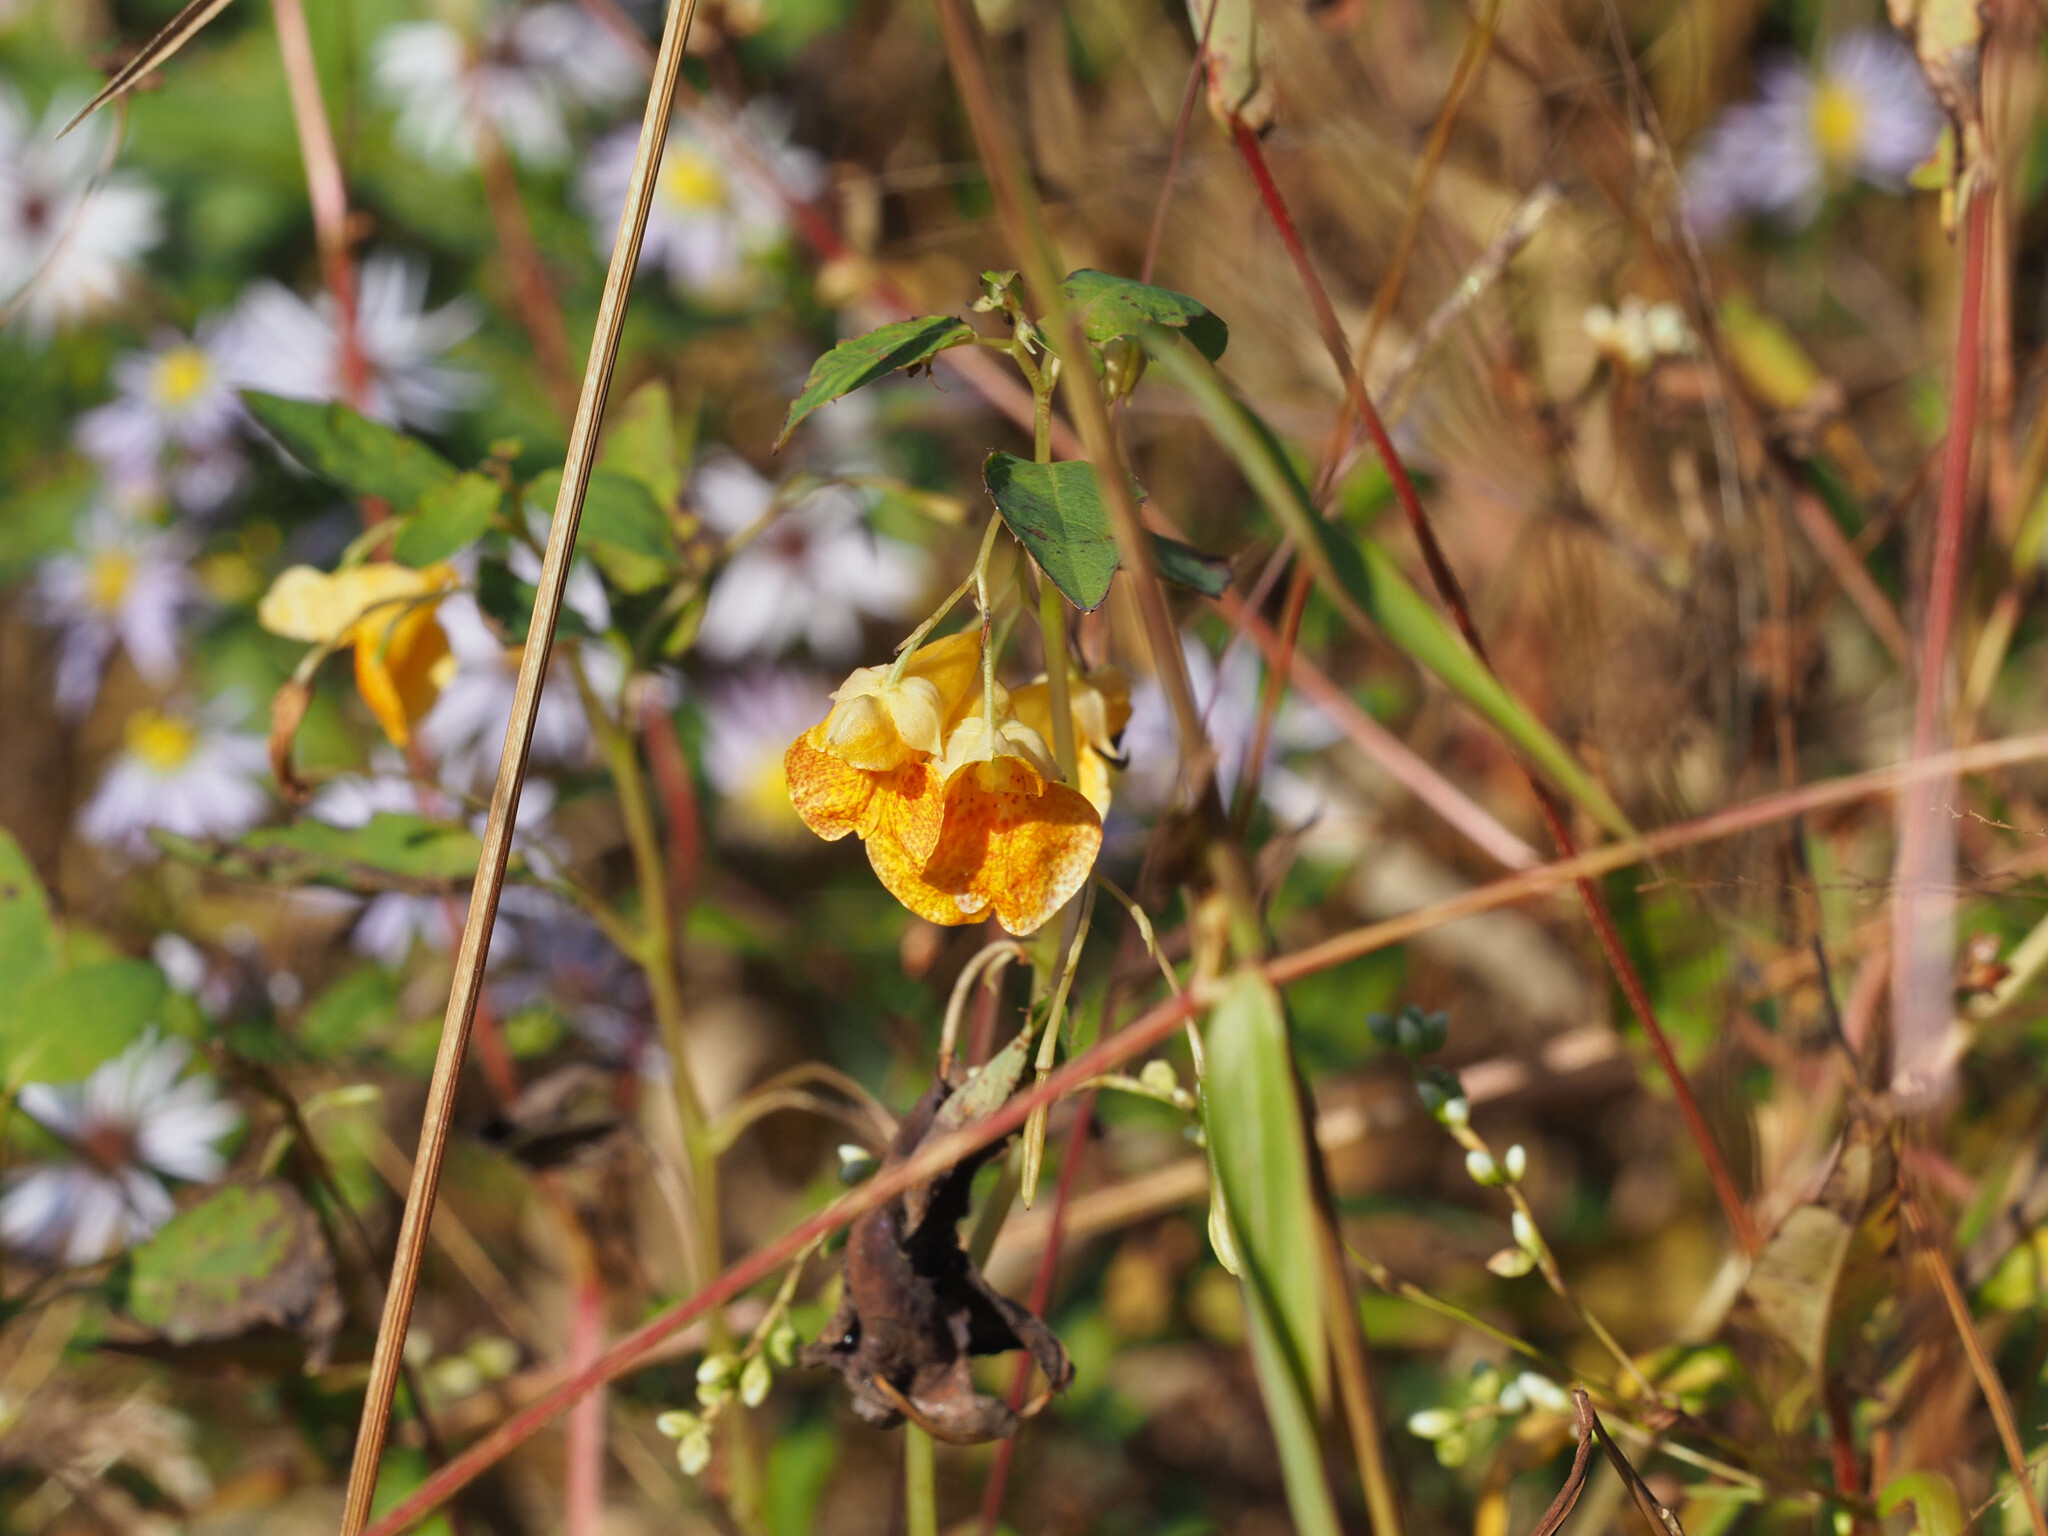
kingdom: Plantae
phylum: Tracheophyta
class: Magnoliopsida
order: Ericales
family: Balsaminaceae
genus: Impatiens
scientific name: Impatiens capensis
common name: Orange balsam
